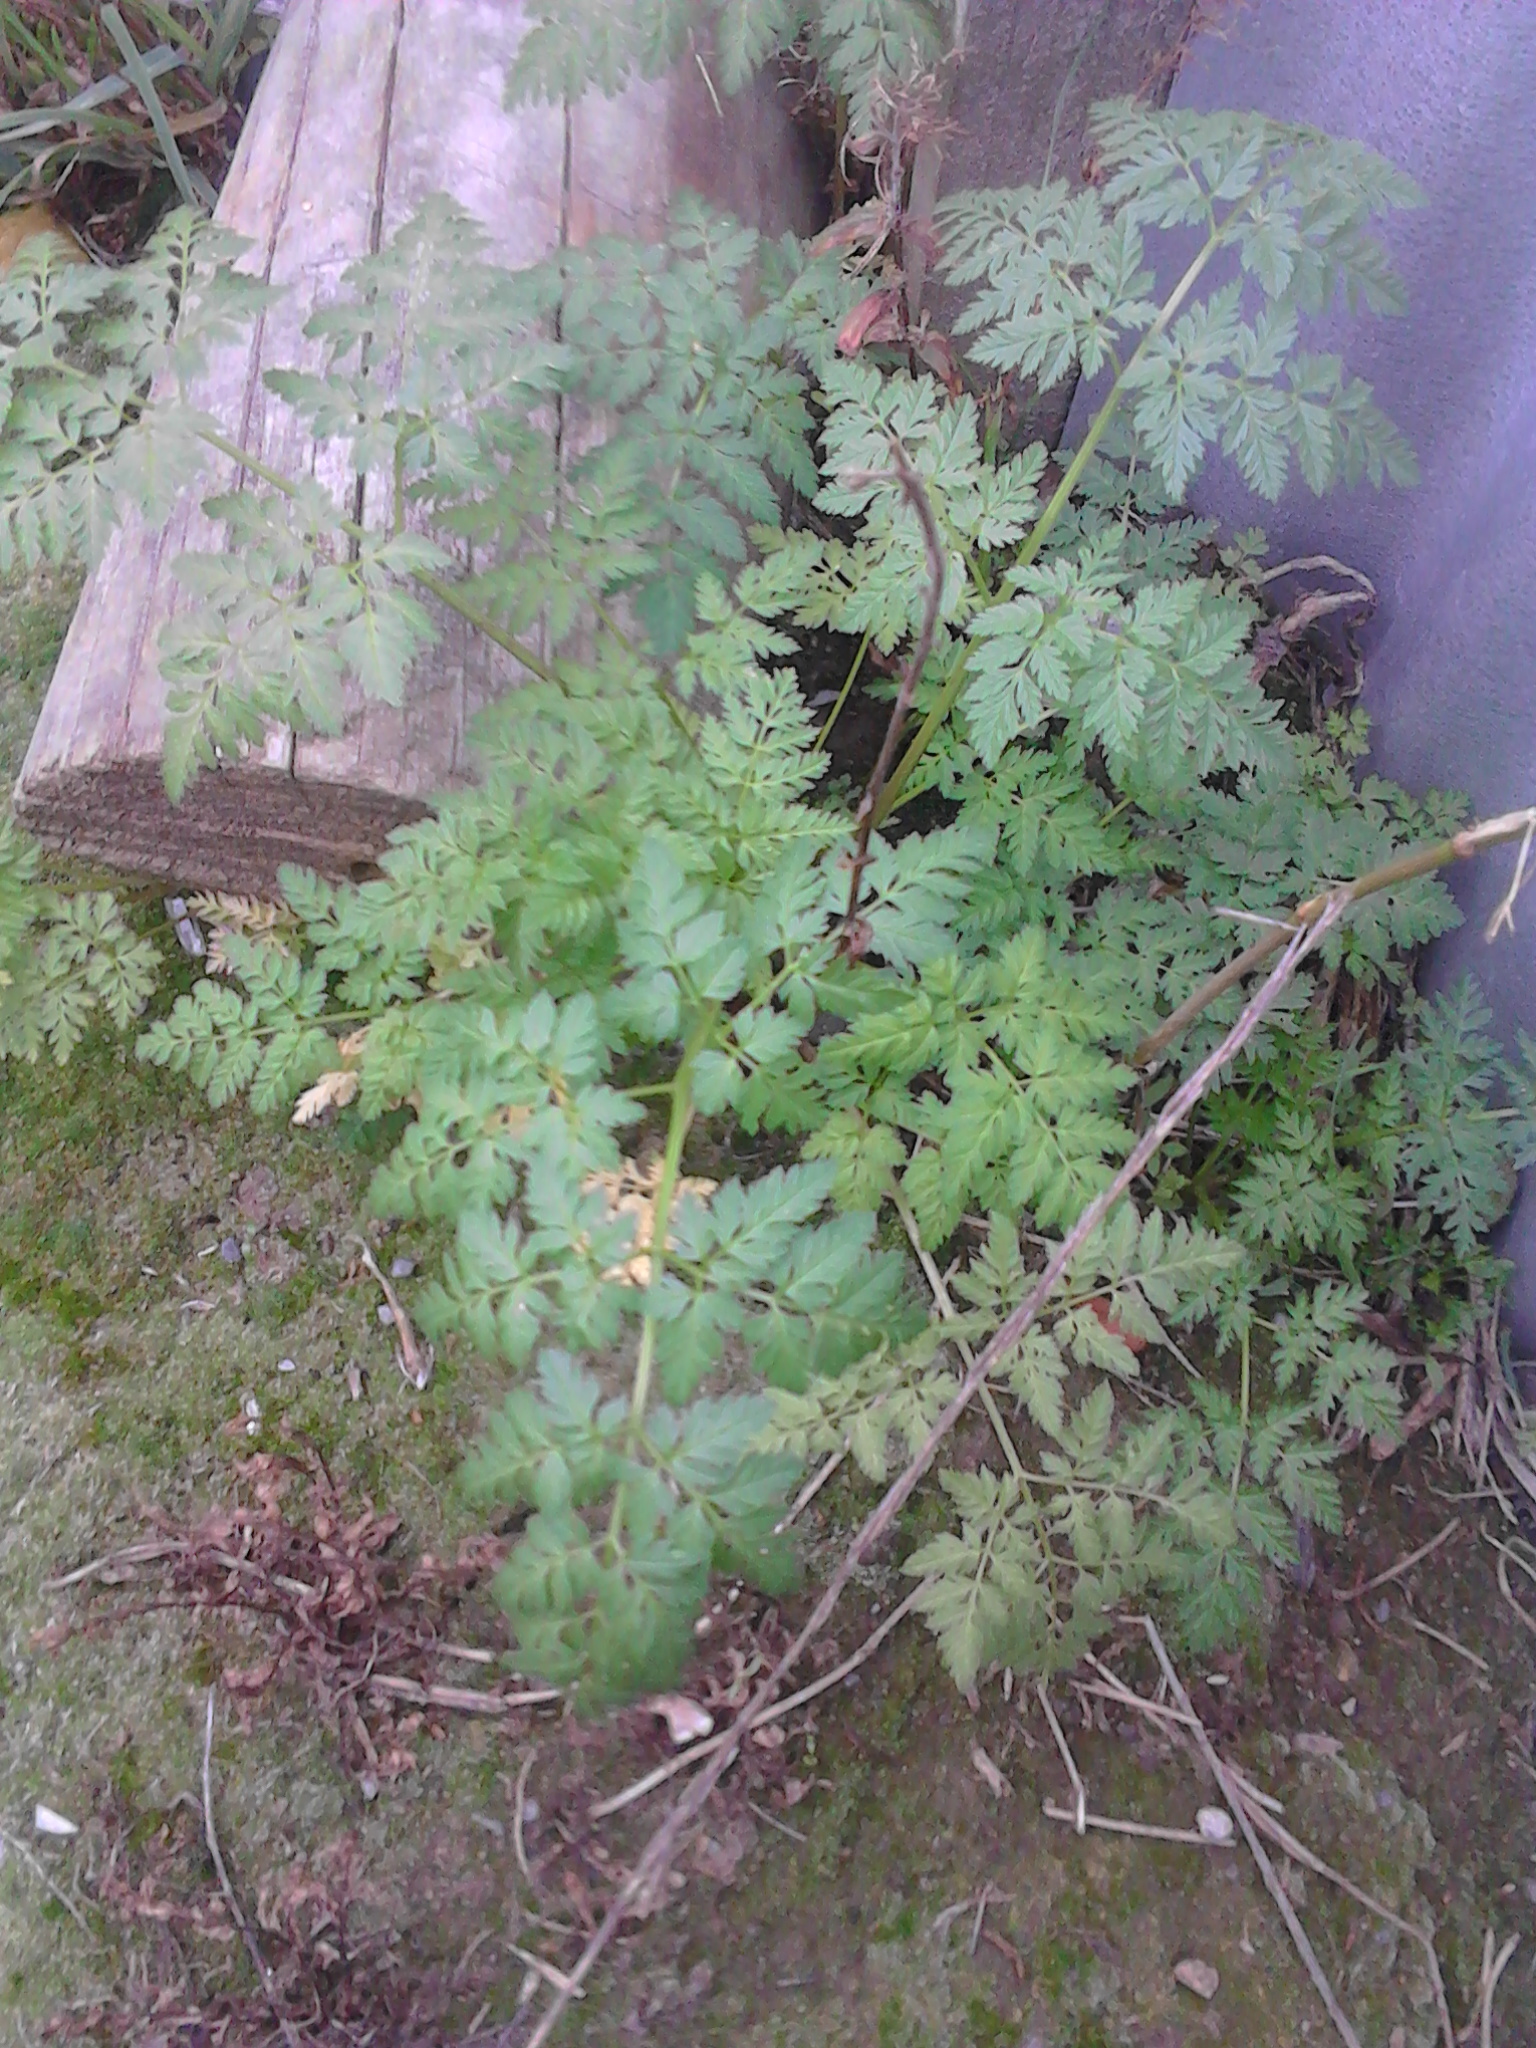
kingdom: Plantae
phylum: Tracheophyta
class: Magnoliopsida
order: Apiales
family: Apiaceae
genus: Conium
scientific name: Conium maculatum
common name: Hemlock
